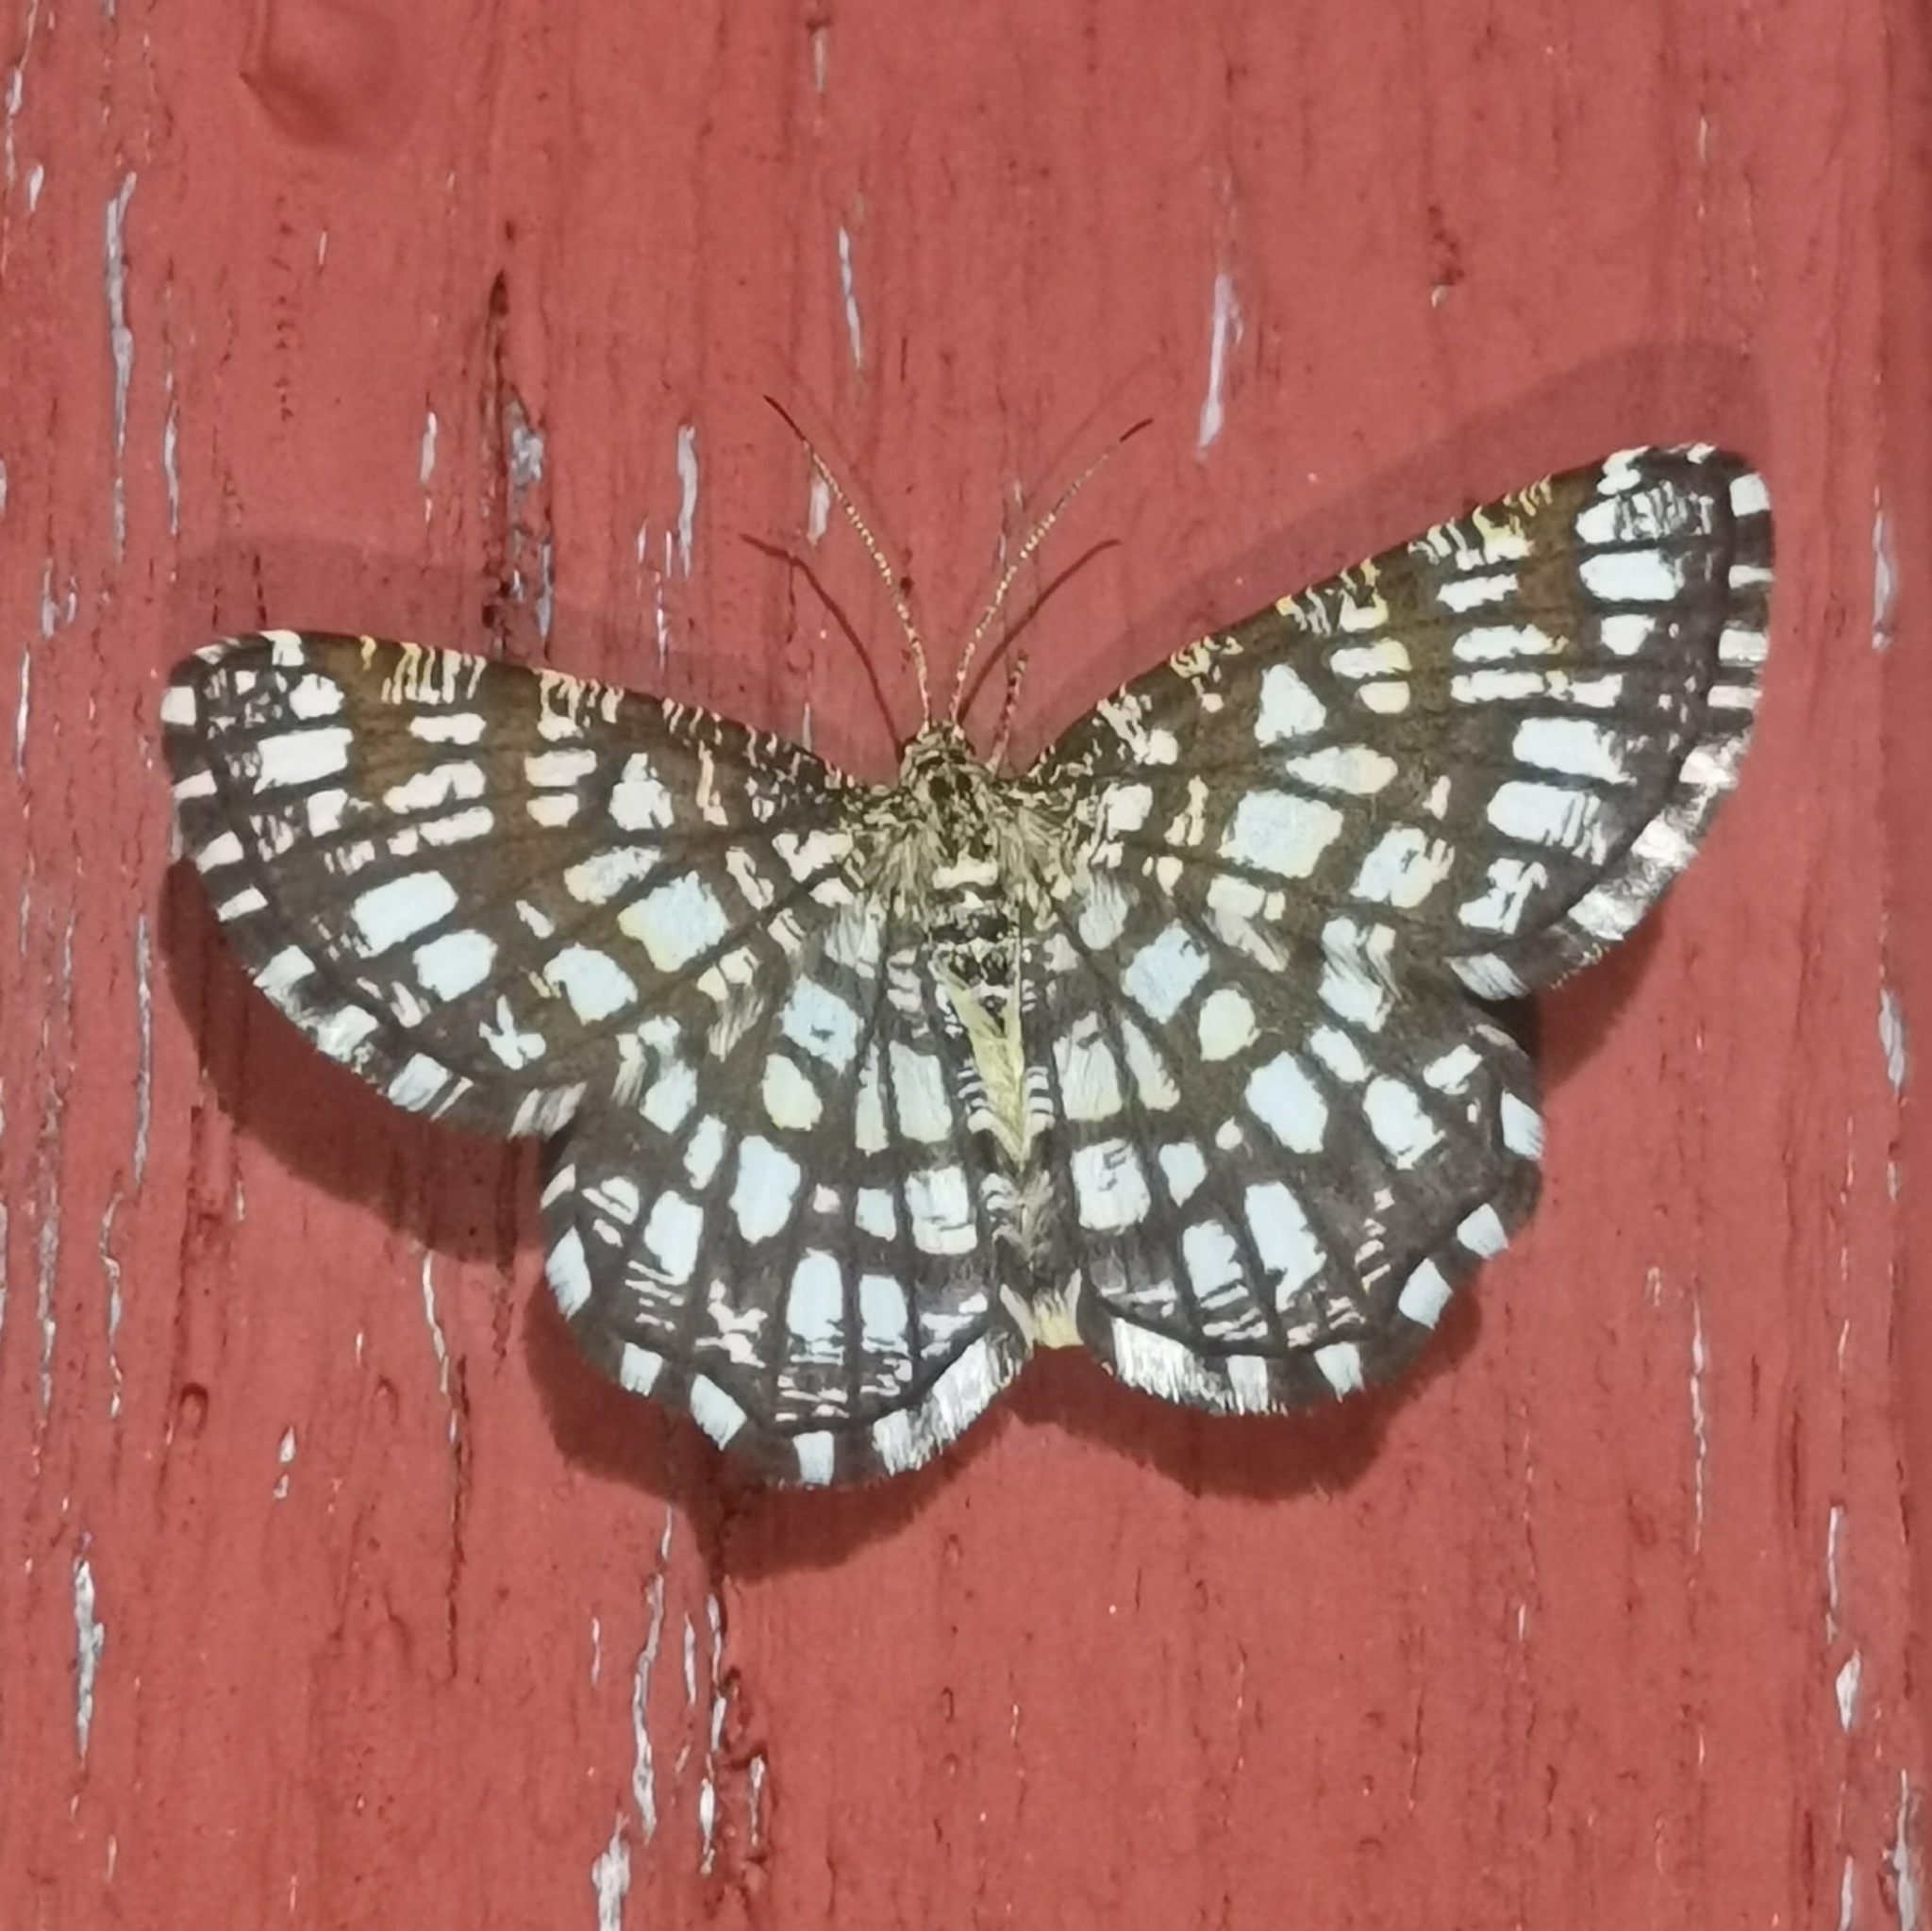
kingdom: Animalia
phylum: Arthropoda
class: Insecta
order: Lepidoptera
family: Geometridae
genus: Chiasmia
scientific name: Chiasmia clathrata
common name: Latticed heath
